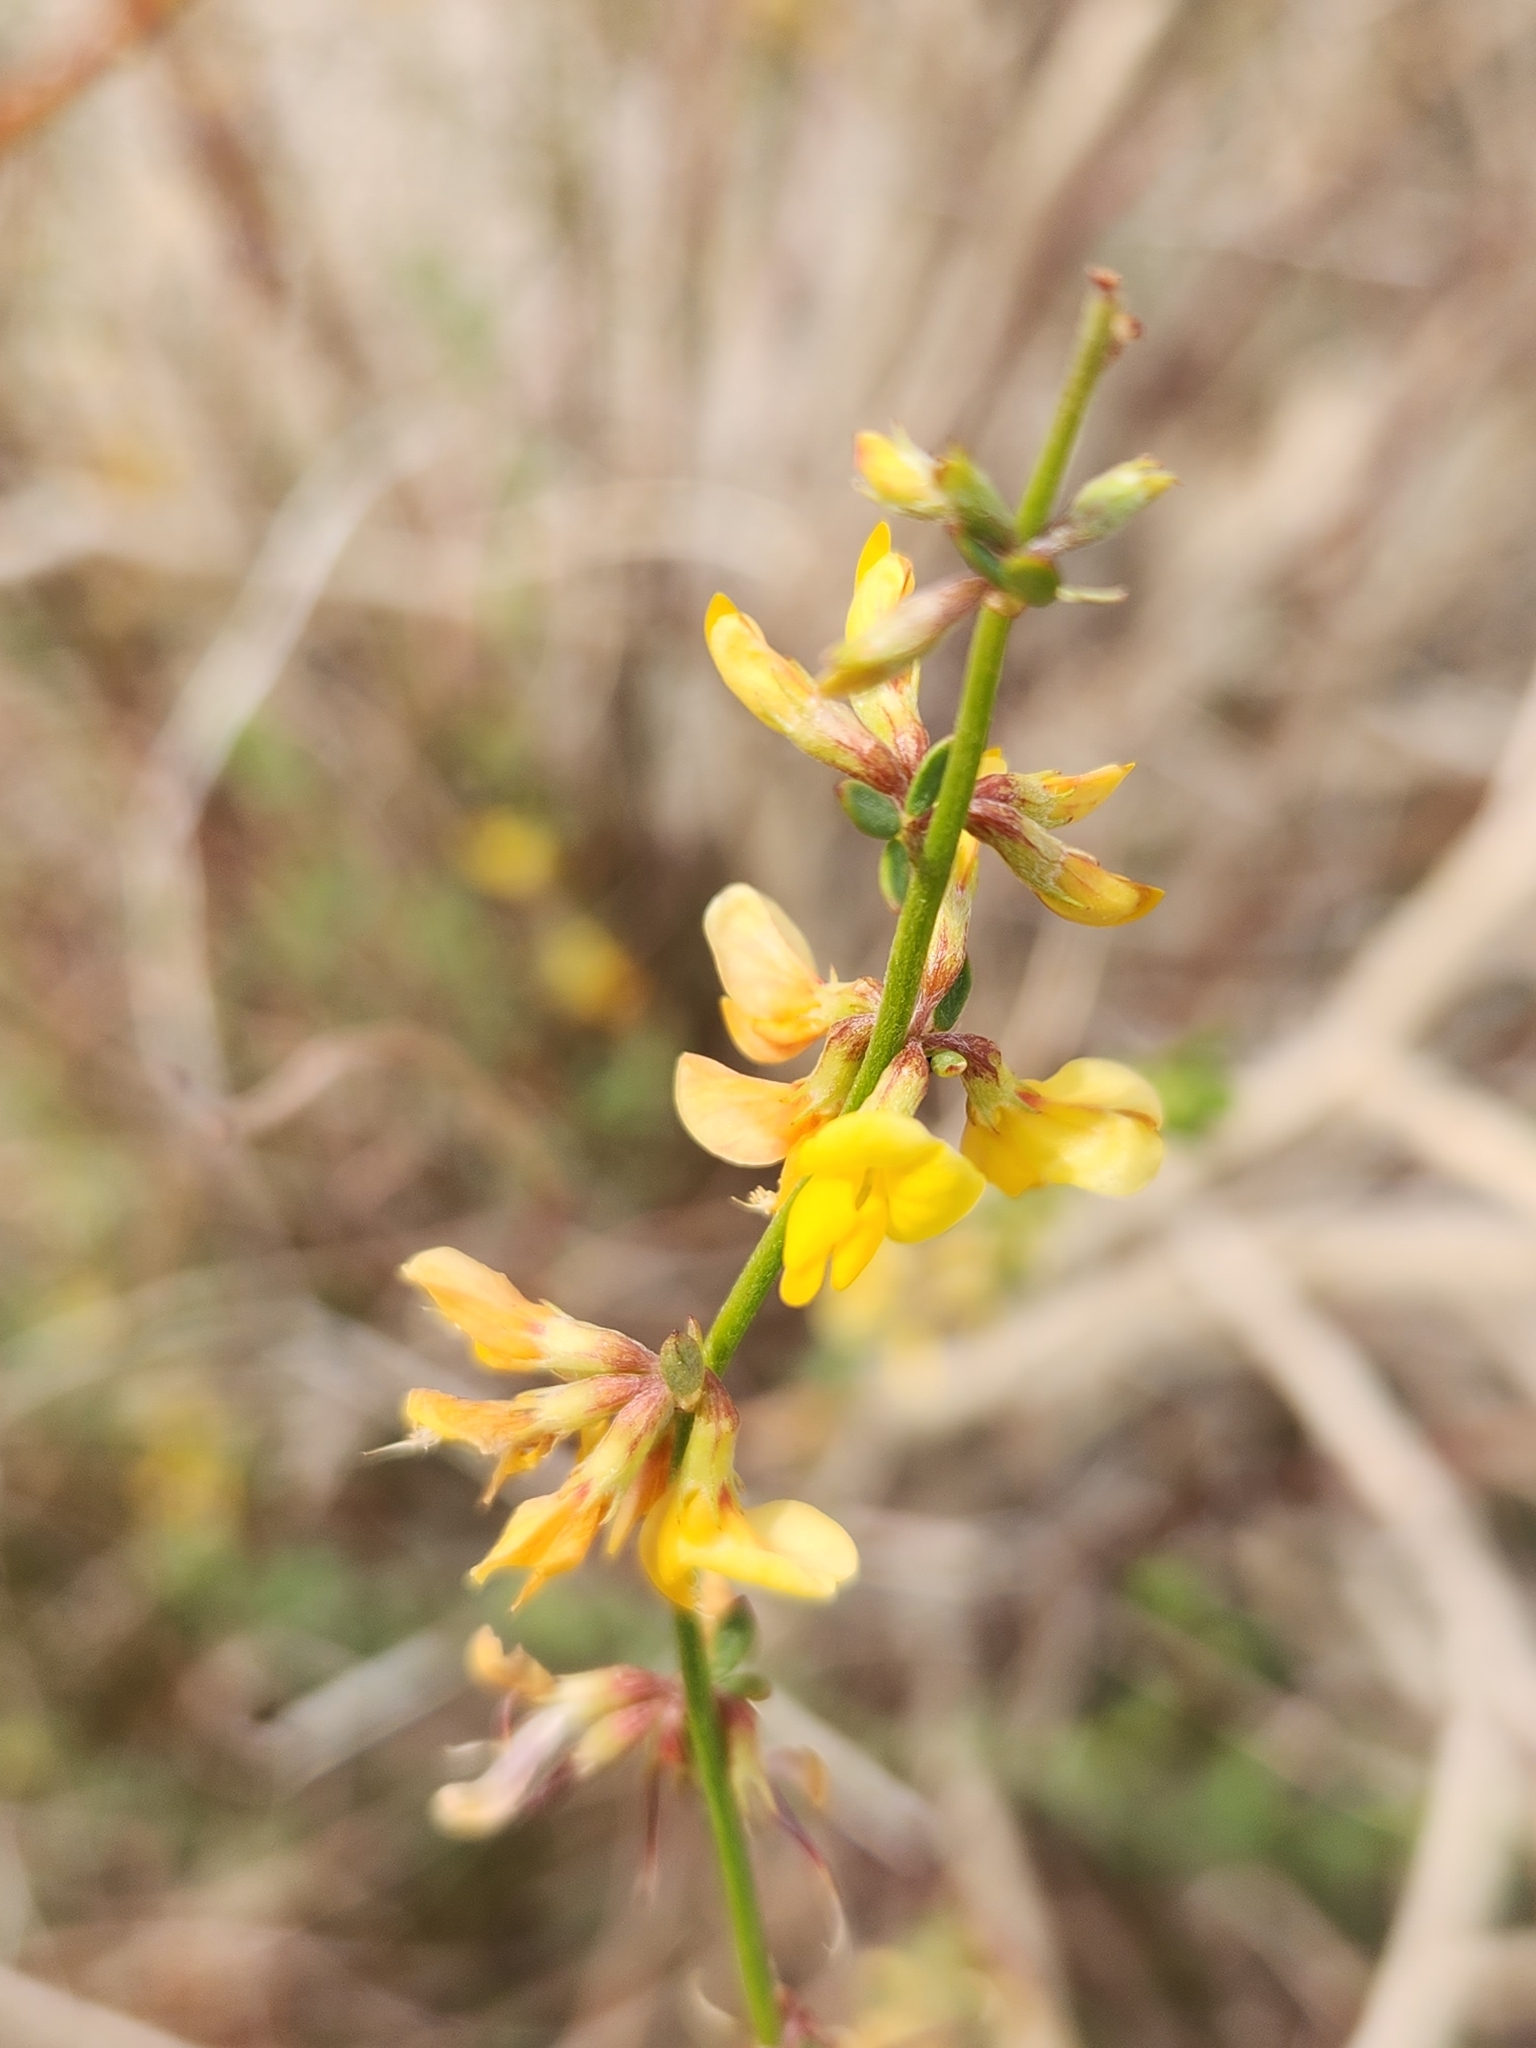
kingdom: Plantae
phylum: Tracheophyta
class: Magnoliopsida
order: Fabales
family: Fabaceae
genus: Acmispon
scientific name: Acmispon glaber
